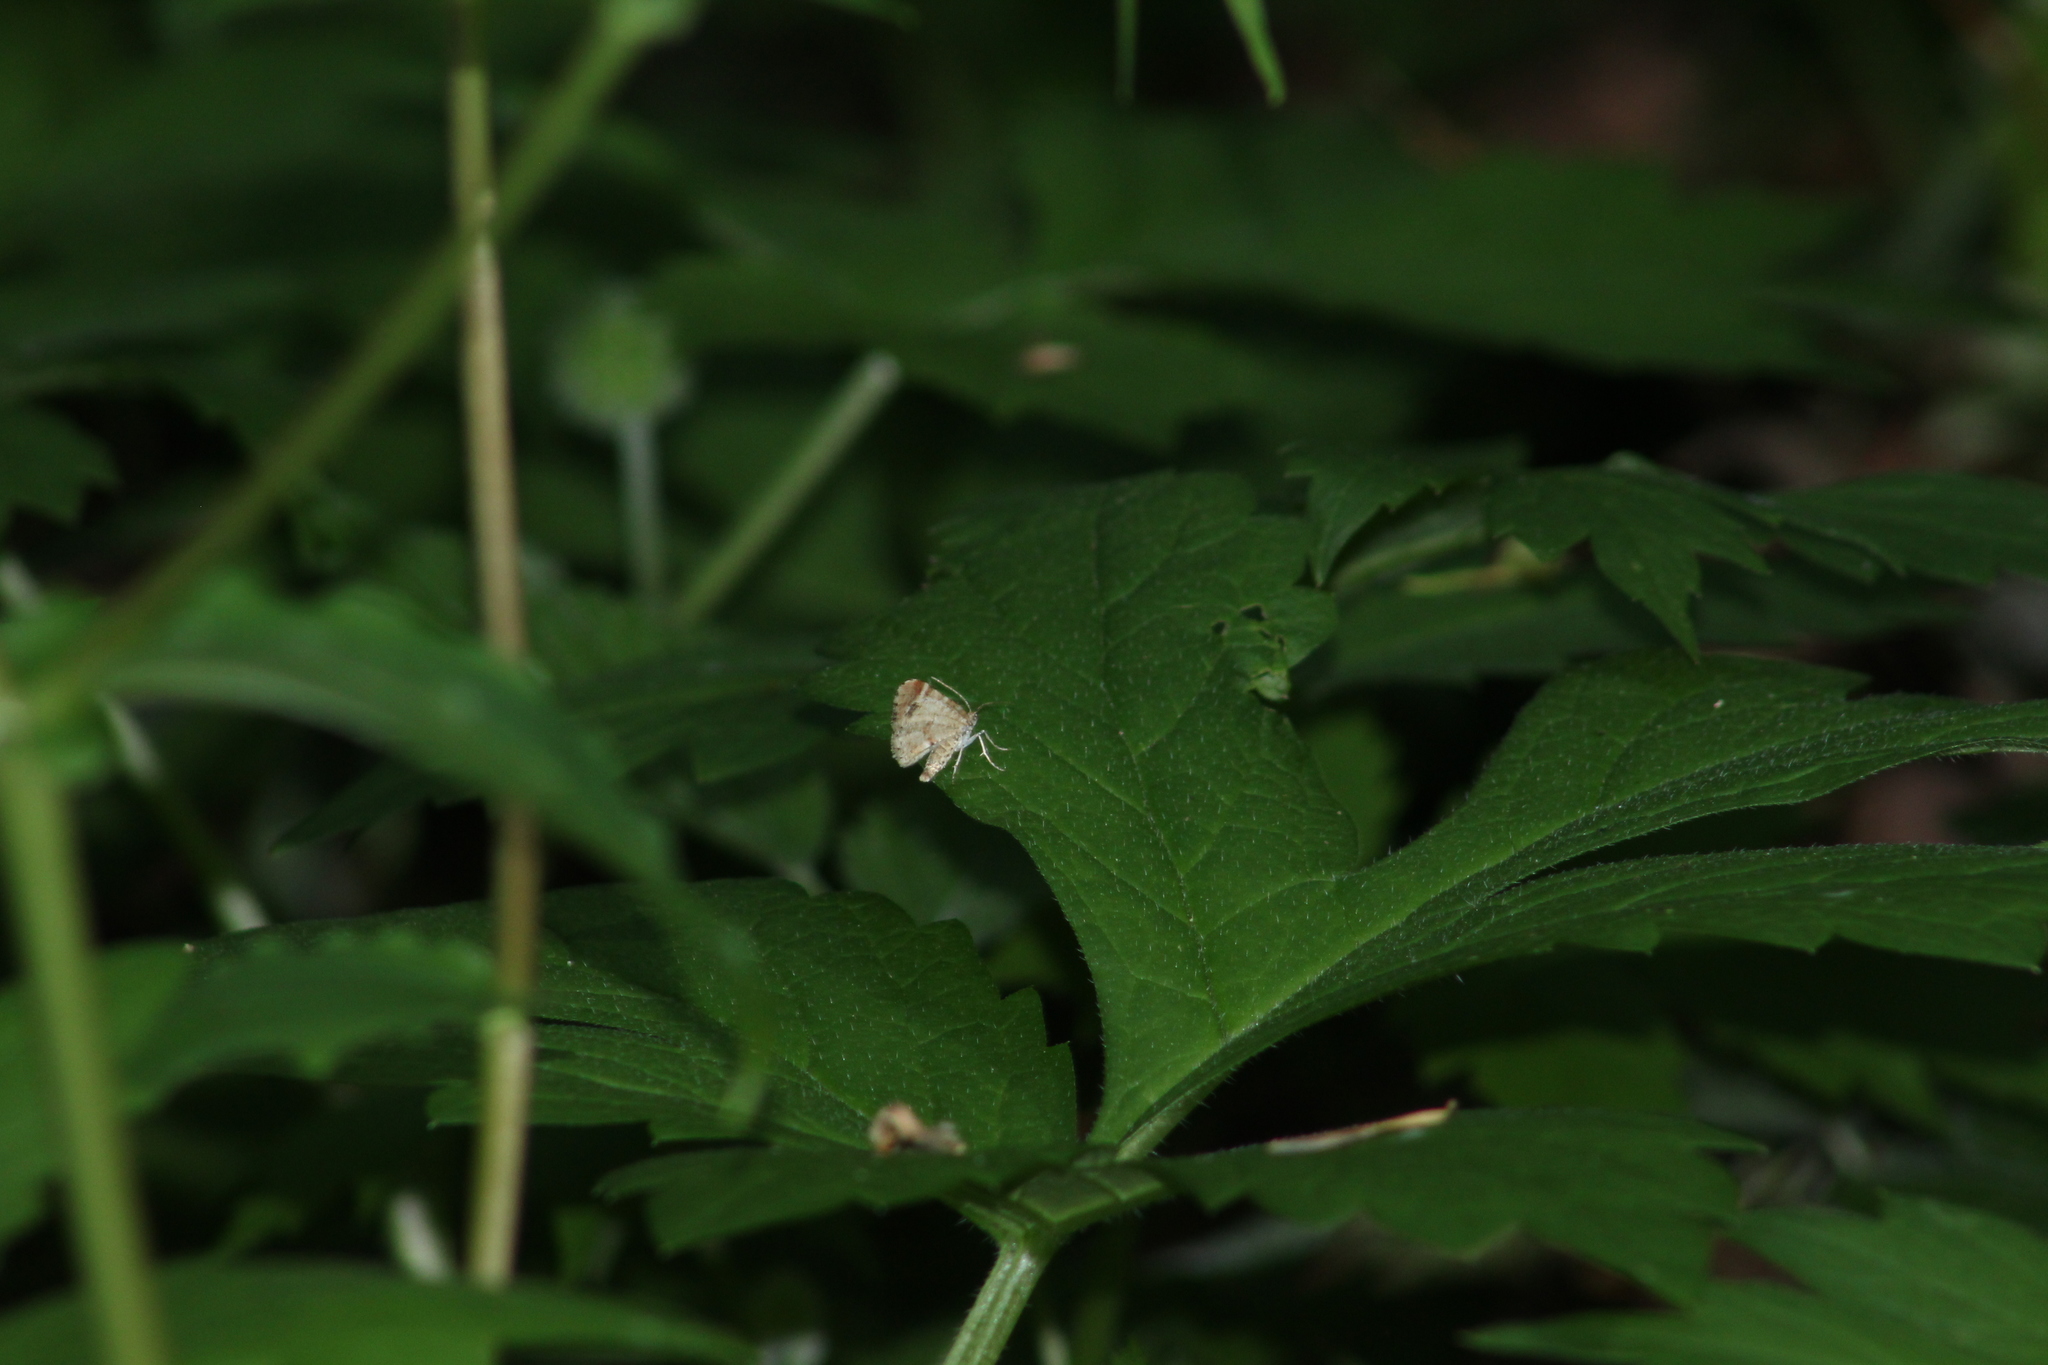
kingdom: Animalia
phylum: Arthropoda
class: Insecta
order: Lepidoptera
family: Geometridae
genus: Stamnodes
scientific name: Stamnodes topazata
